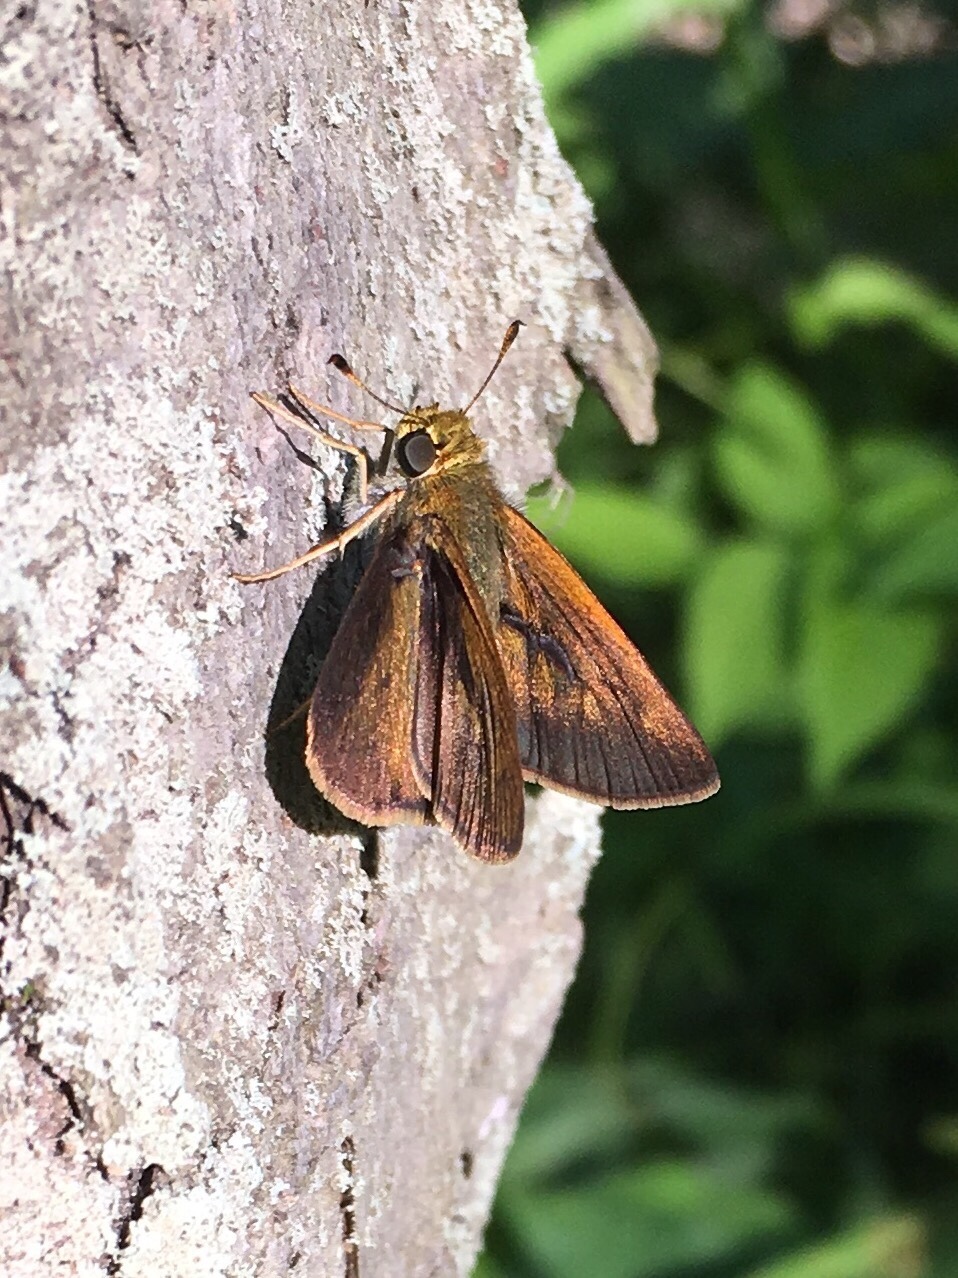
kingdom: Animalia
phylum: Arthropoda
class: Insecta
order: Lepidoptera
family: Hesperiidae
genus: Euphyes
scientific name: Euphyes vestris
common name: Dun skipper
